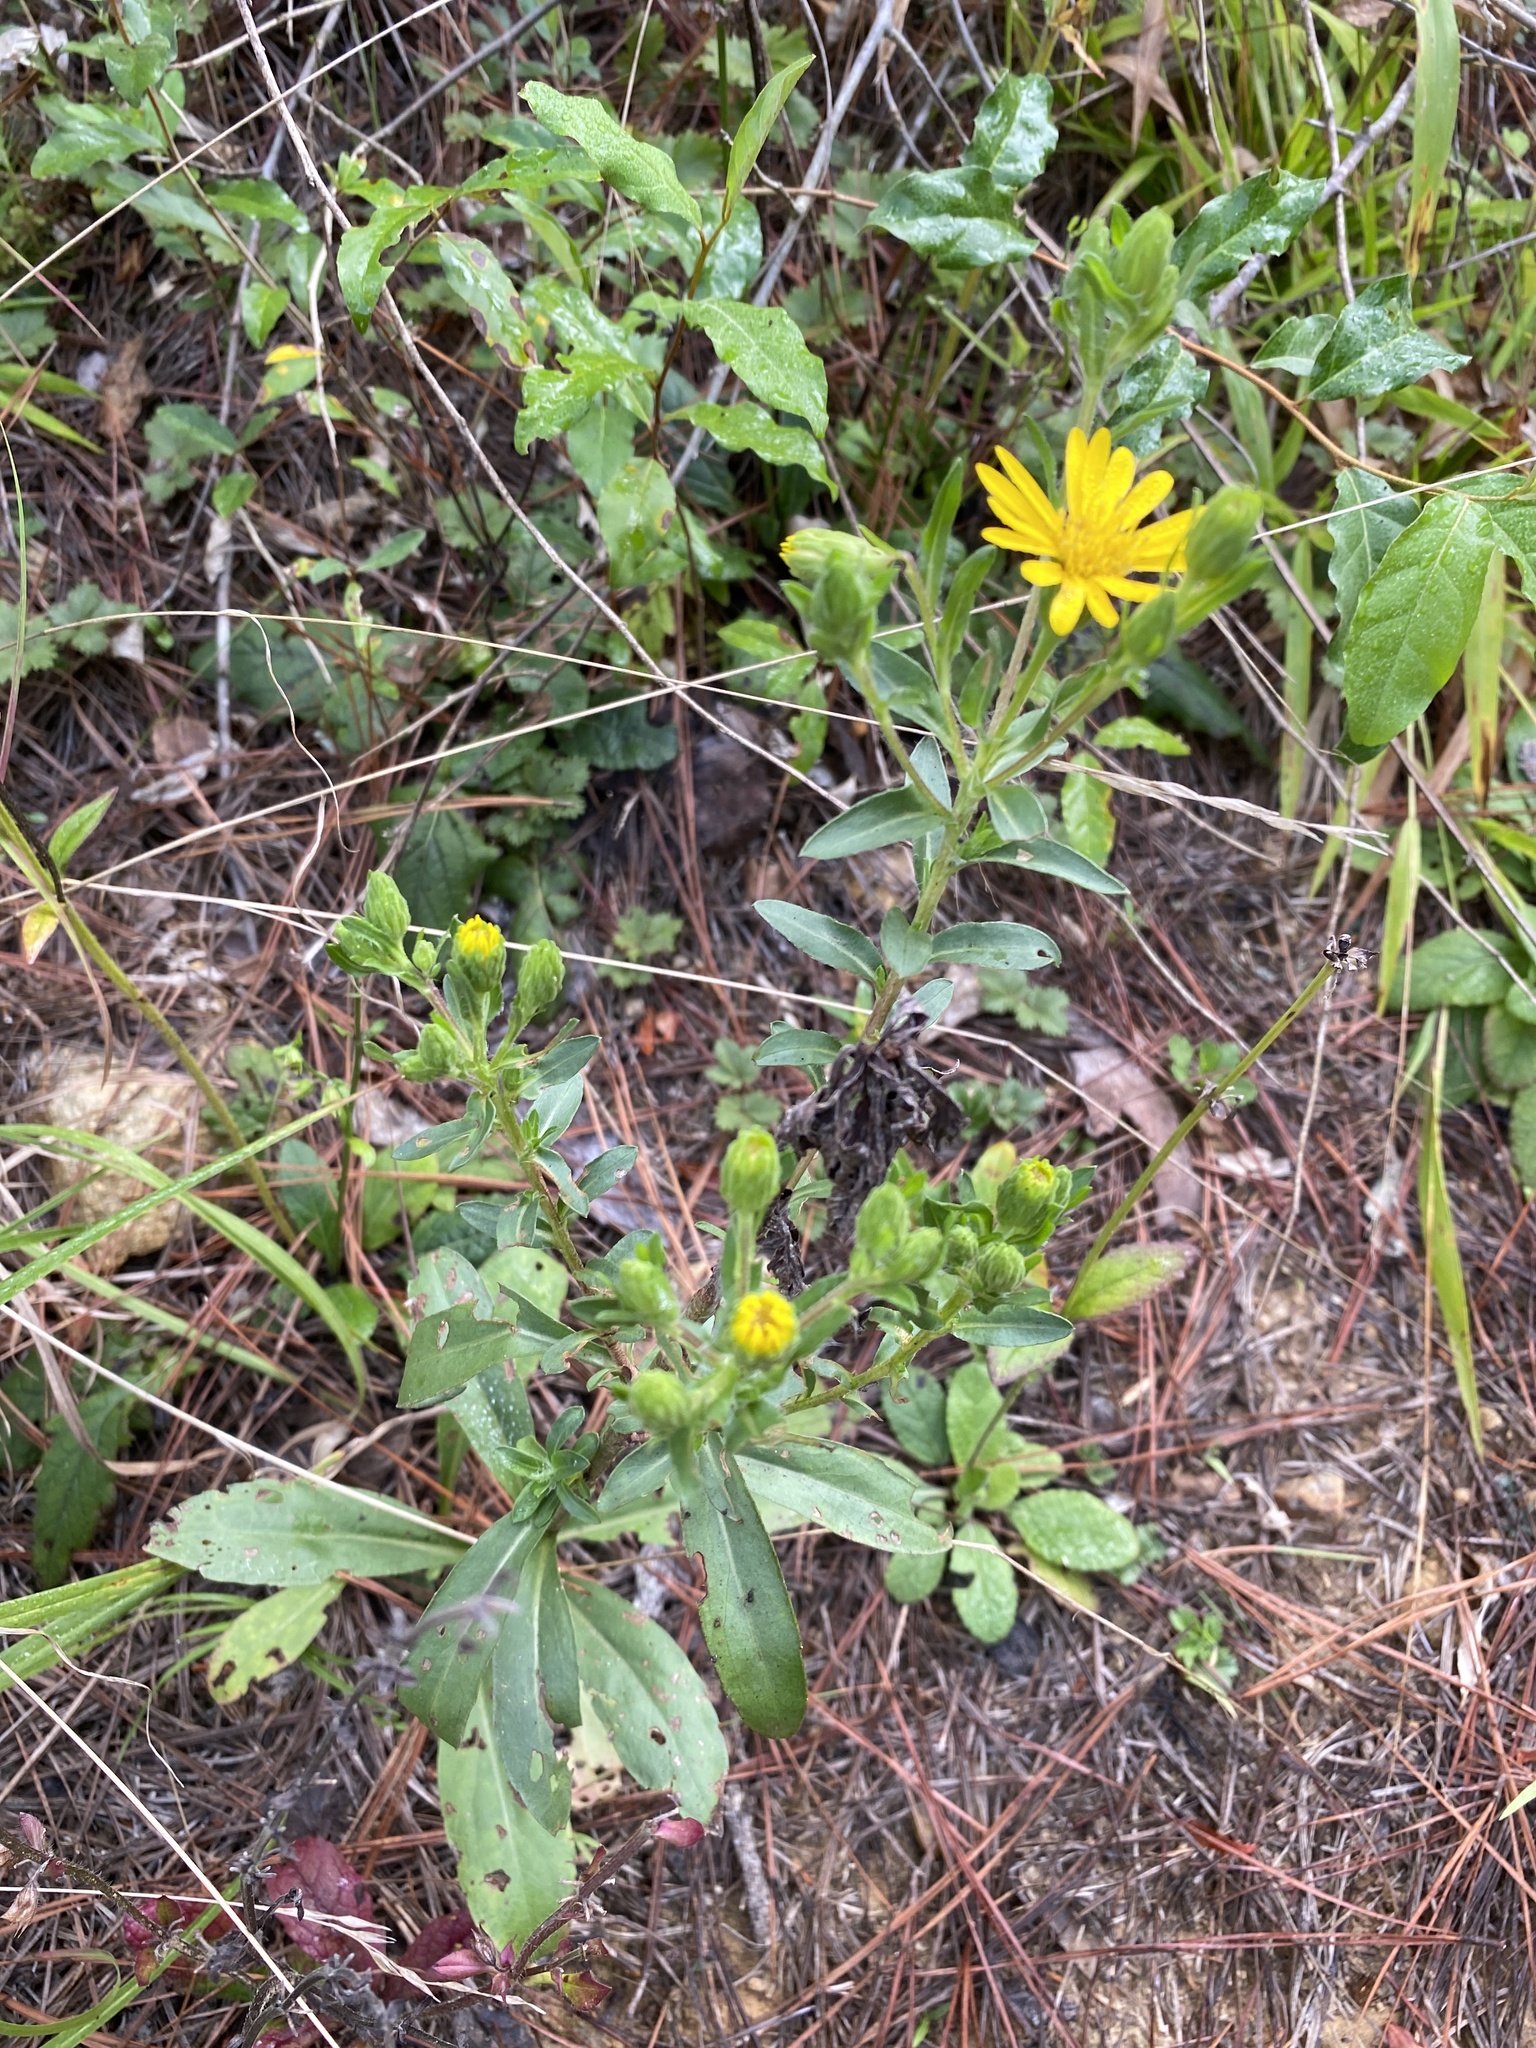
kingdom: Plantae
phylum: Tracheophyta
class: Magnoliopsida
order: Asterales
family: Asteraceae
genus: Chrysopsis
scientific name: Chrysopsis mariana
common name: Maryland golden-aster
